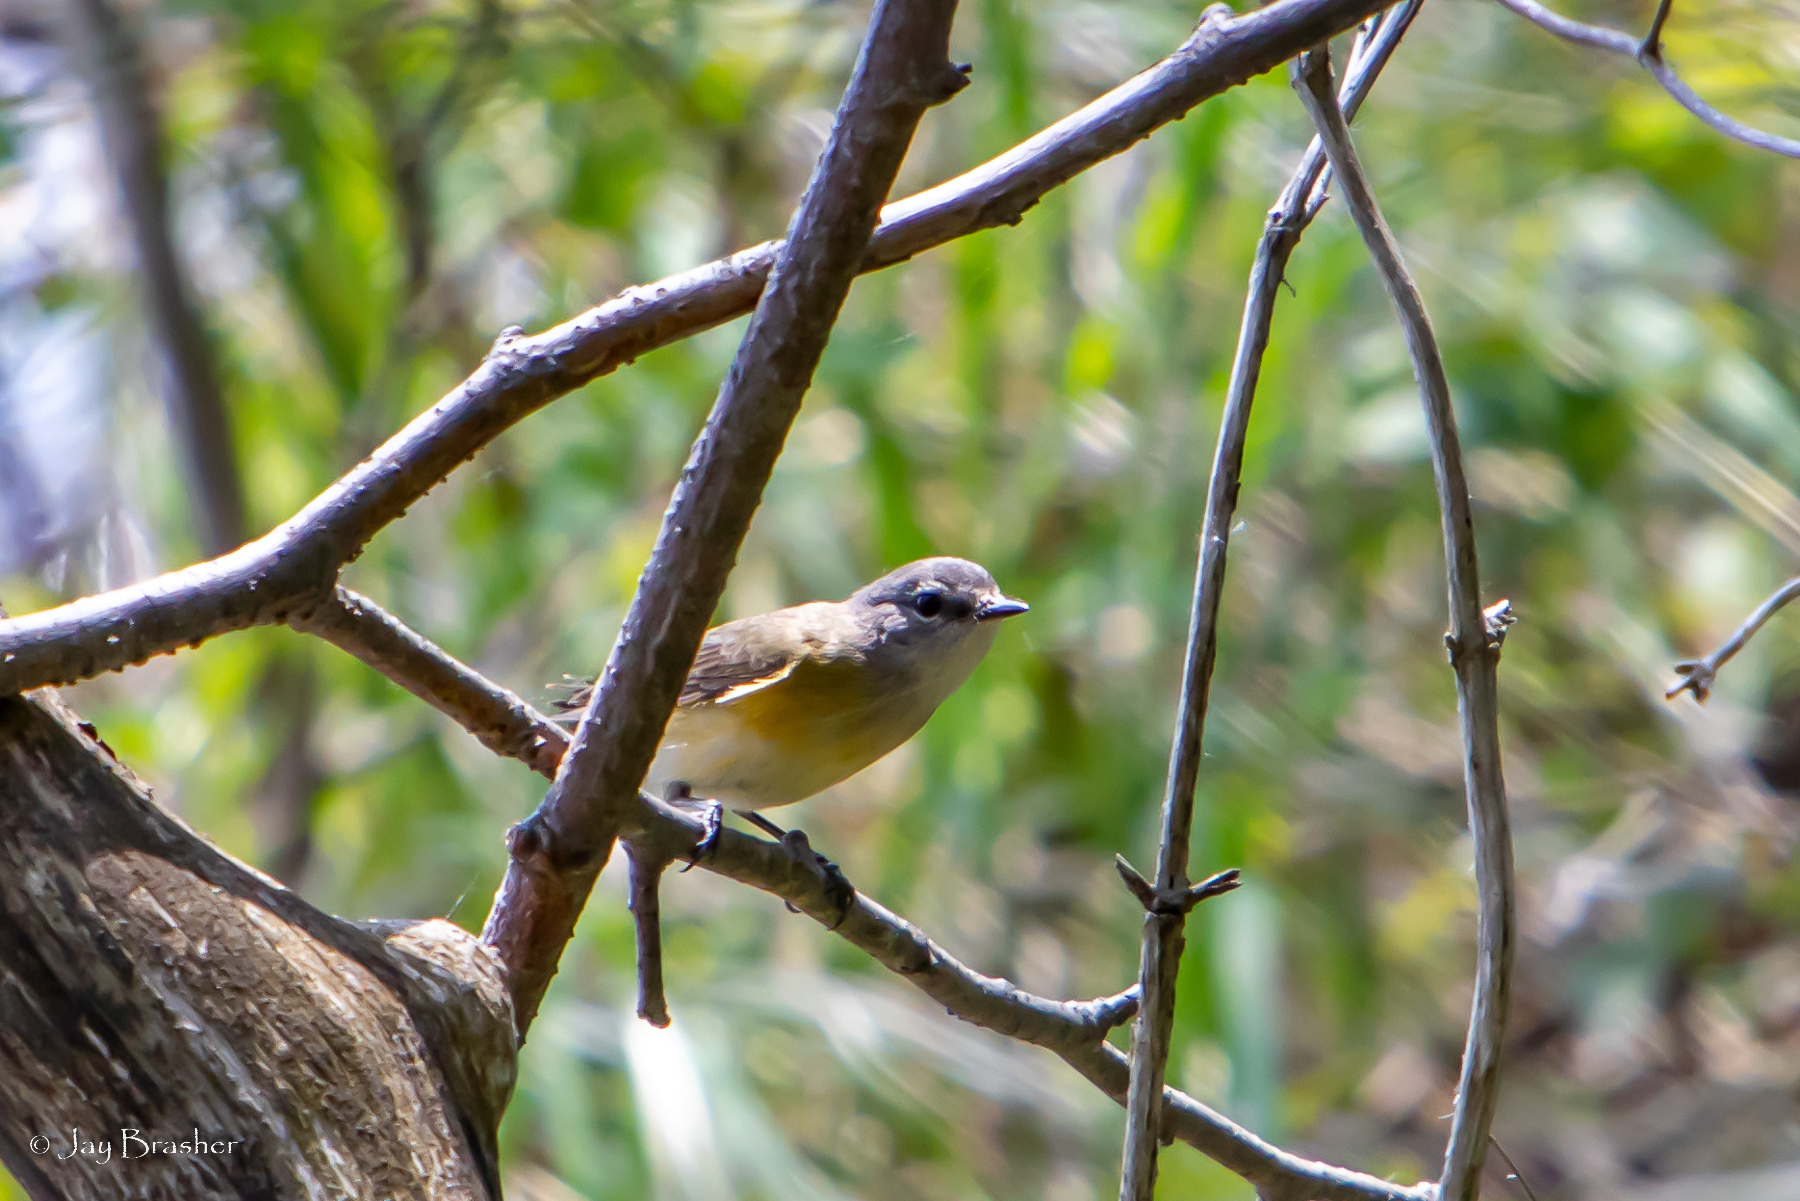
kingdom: Animalia
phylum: Chordata
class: Aves
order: Passeriformes
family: Parulidae
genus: Setophaga
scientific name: Setophaga ruticilla
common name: American redstart
